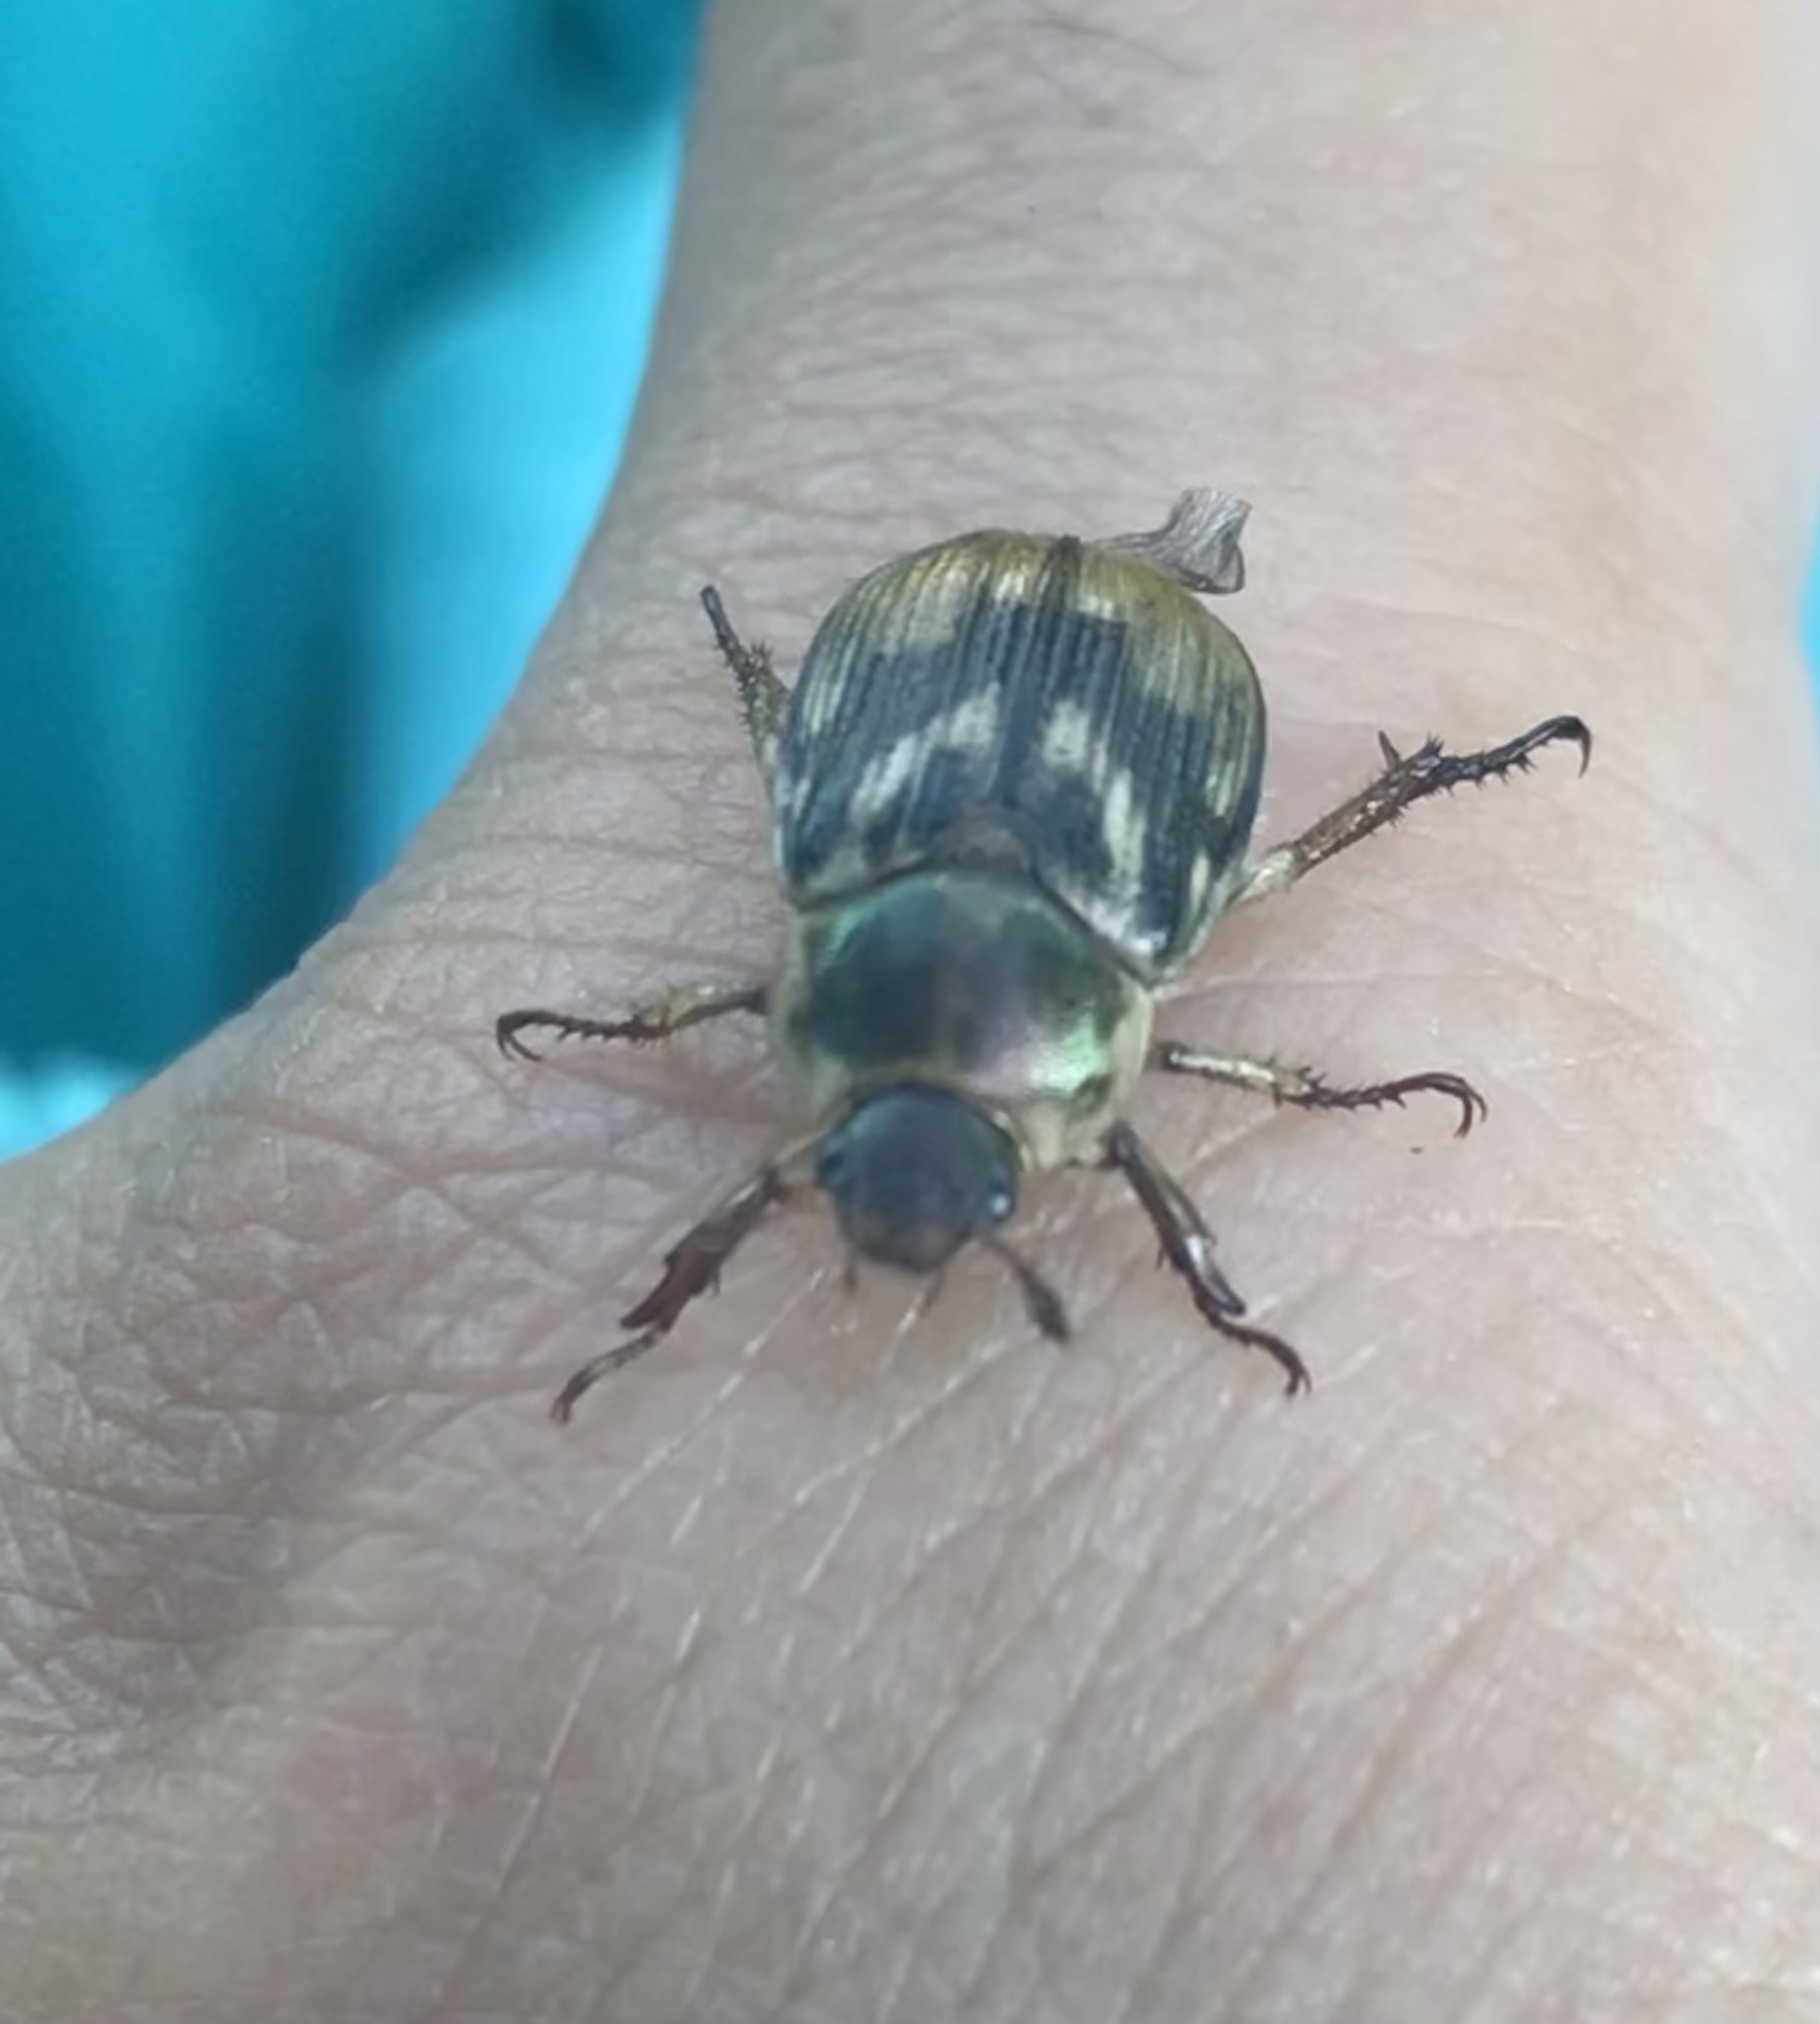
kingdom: Animalia
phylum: Arthropoda
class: Insecta
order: Coleoptera
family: Scarabaeidae
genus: Exomala
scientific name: Exomala orientalis
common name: Oriental beetle
